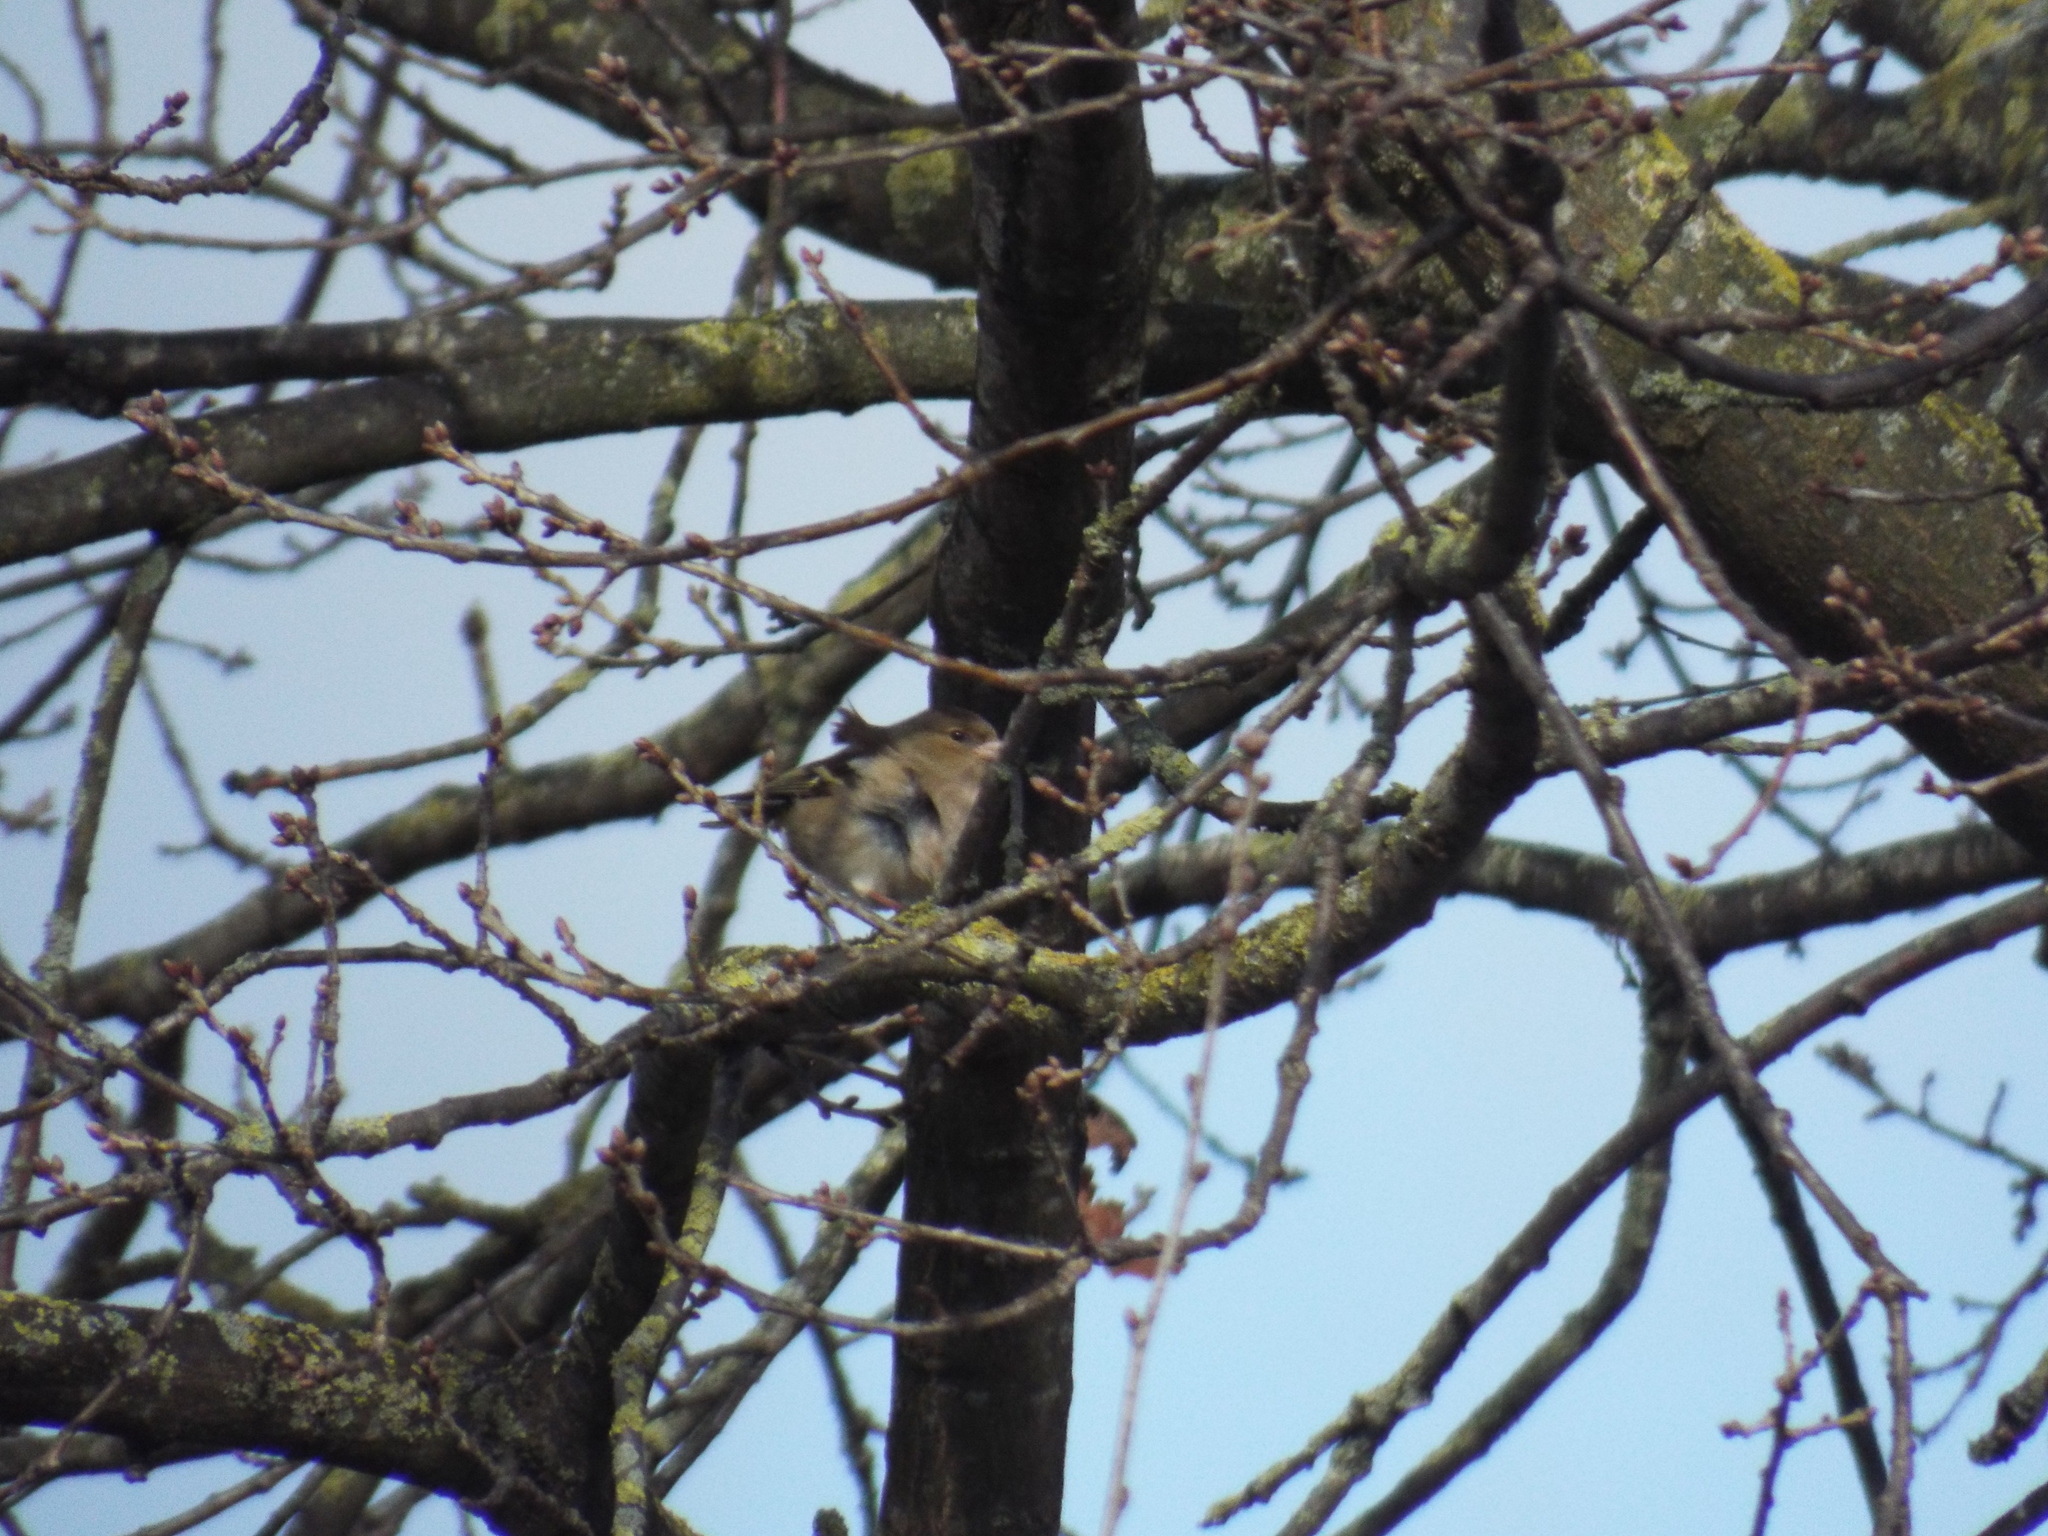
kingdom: Animalia
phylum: Chordata
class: Aves
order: Passeriformes
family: Fringillidae
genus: Fringilla
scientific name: Fringilla coelebs
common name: Common chaffinch
